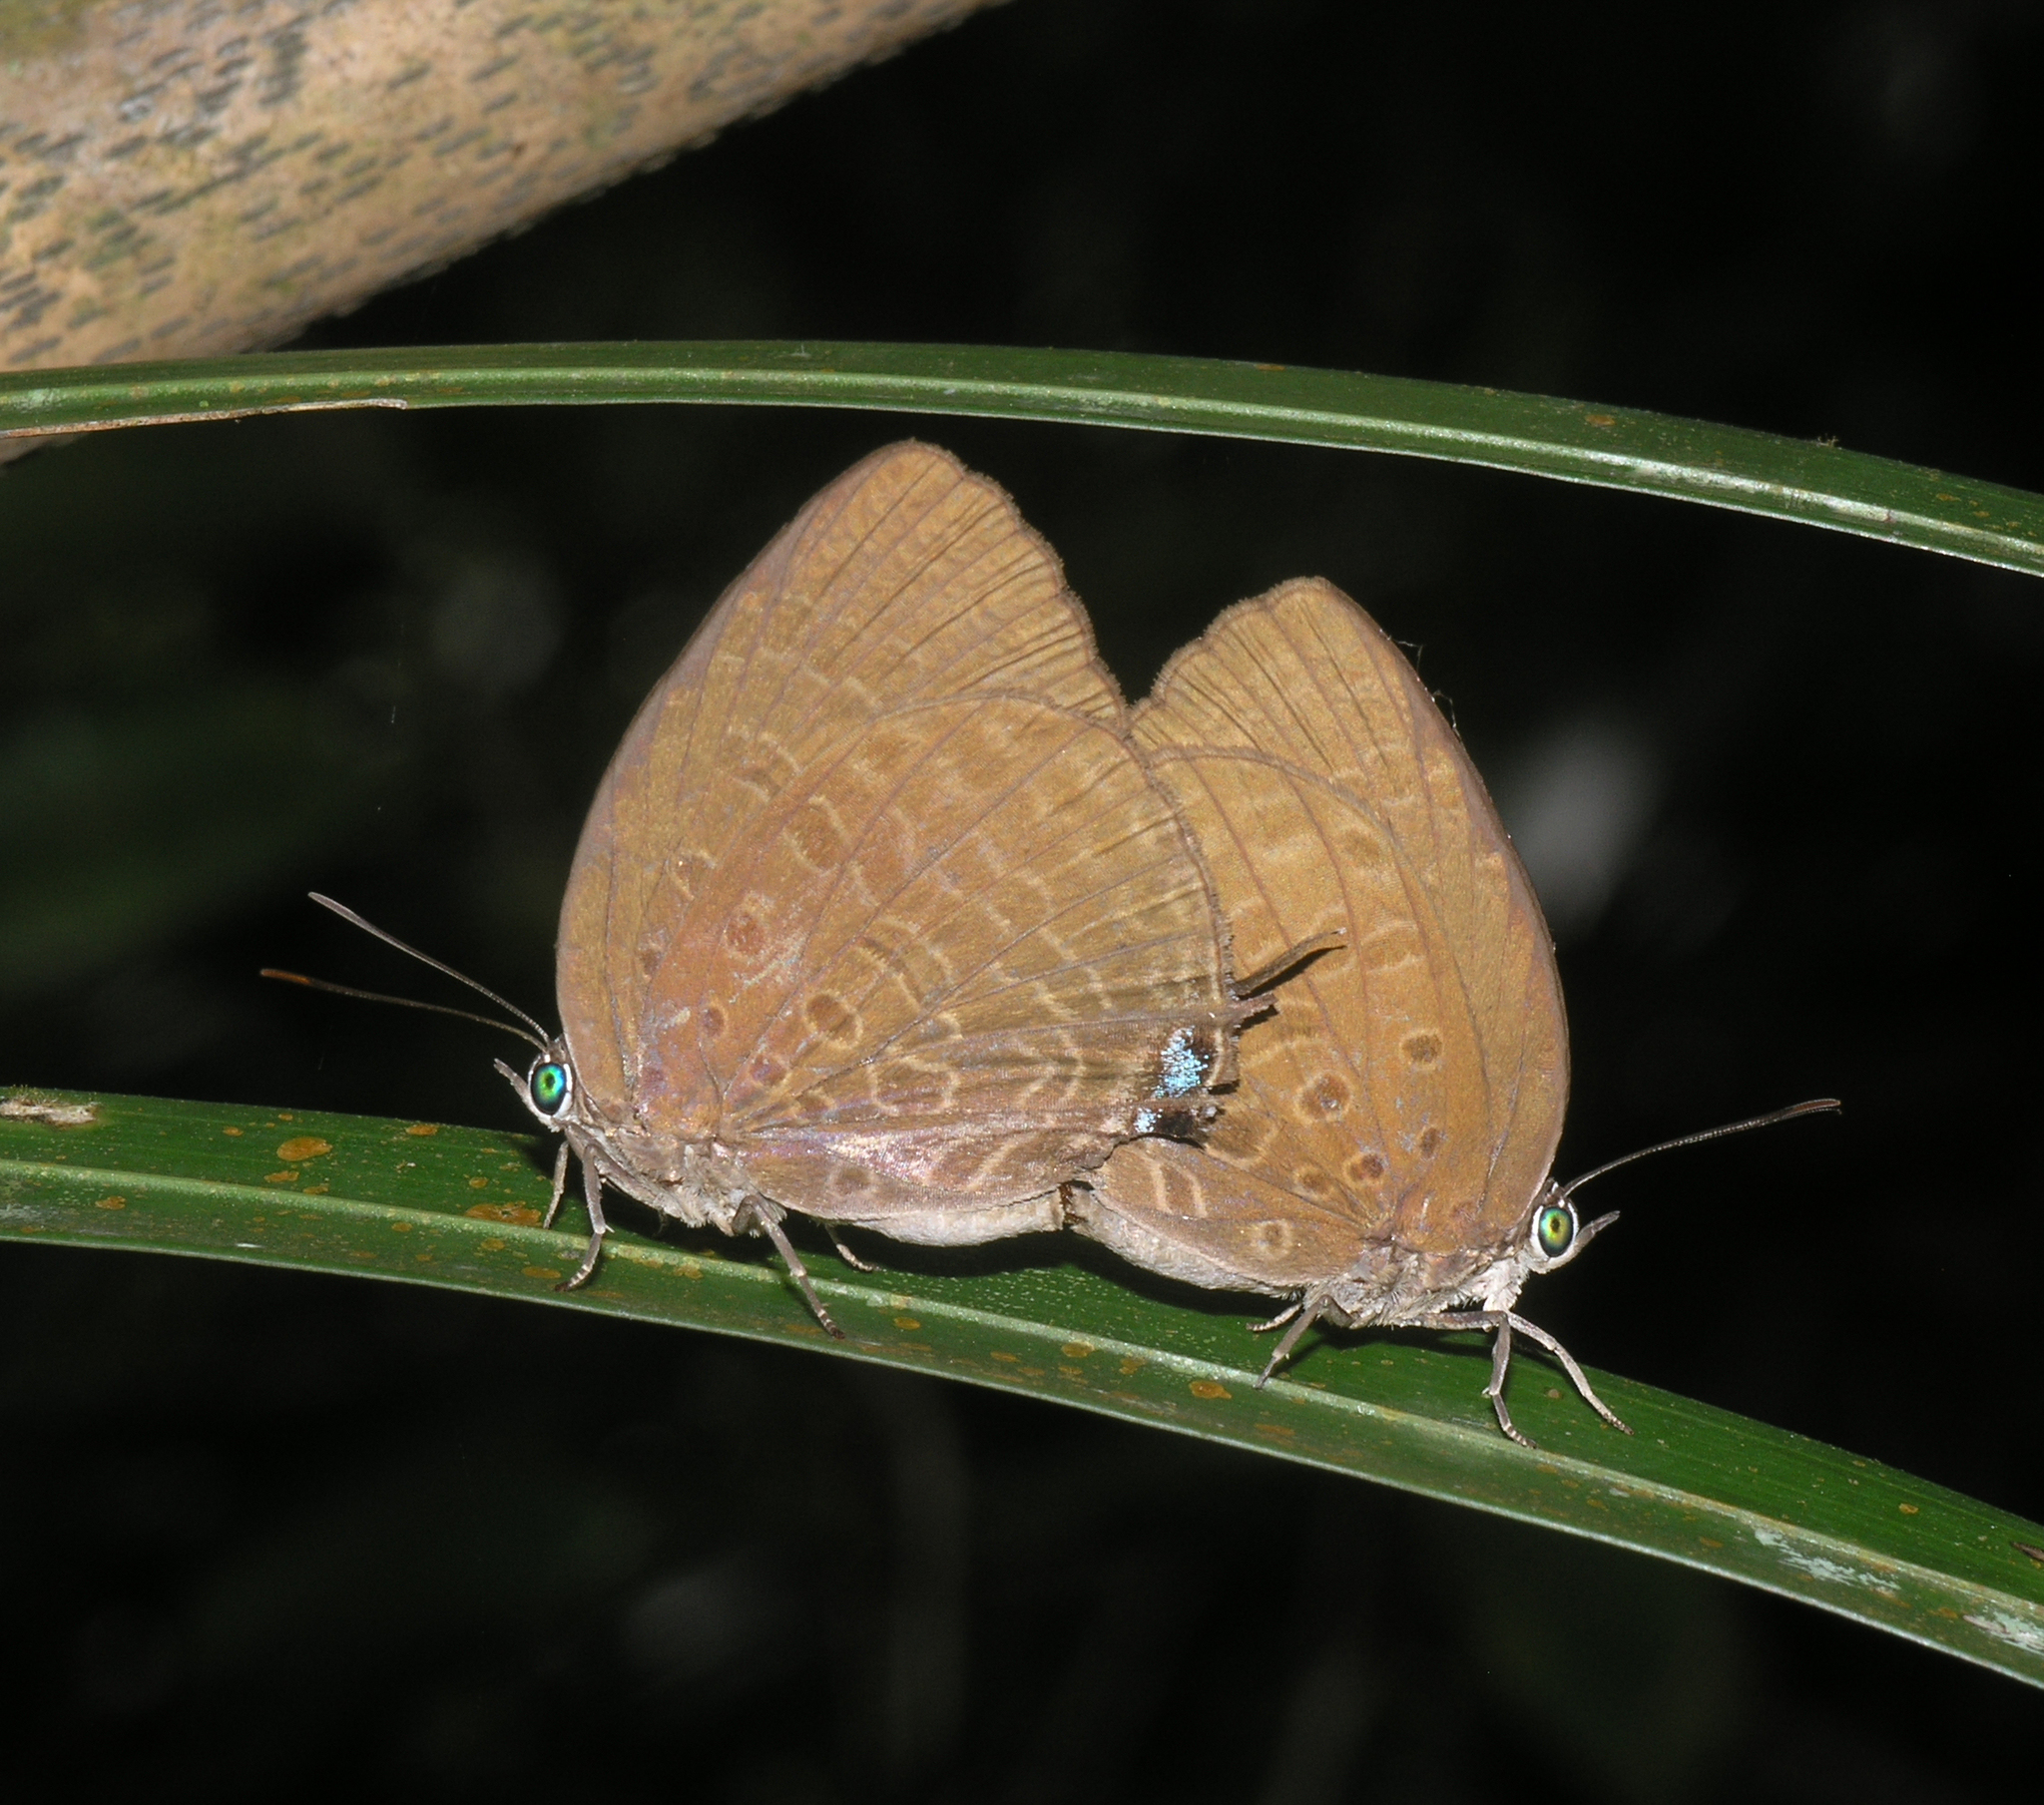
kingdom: Animalia
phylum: Arthropoda
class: Insecta
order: Lepidoptera
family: Lycaenidae
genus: Arhopala
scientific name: Arhopala atosia
